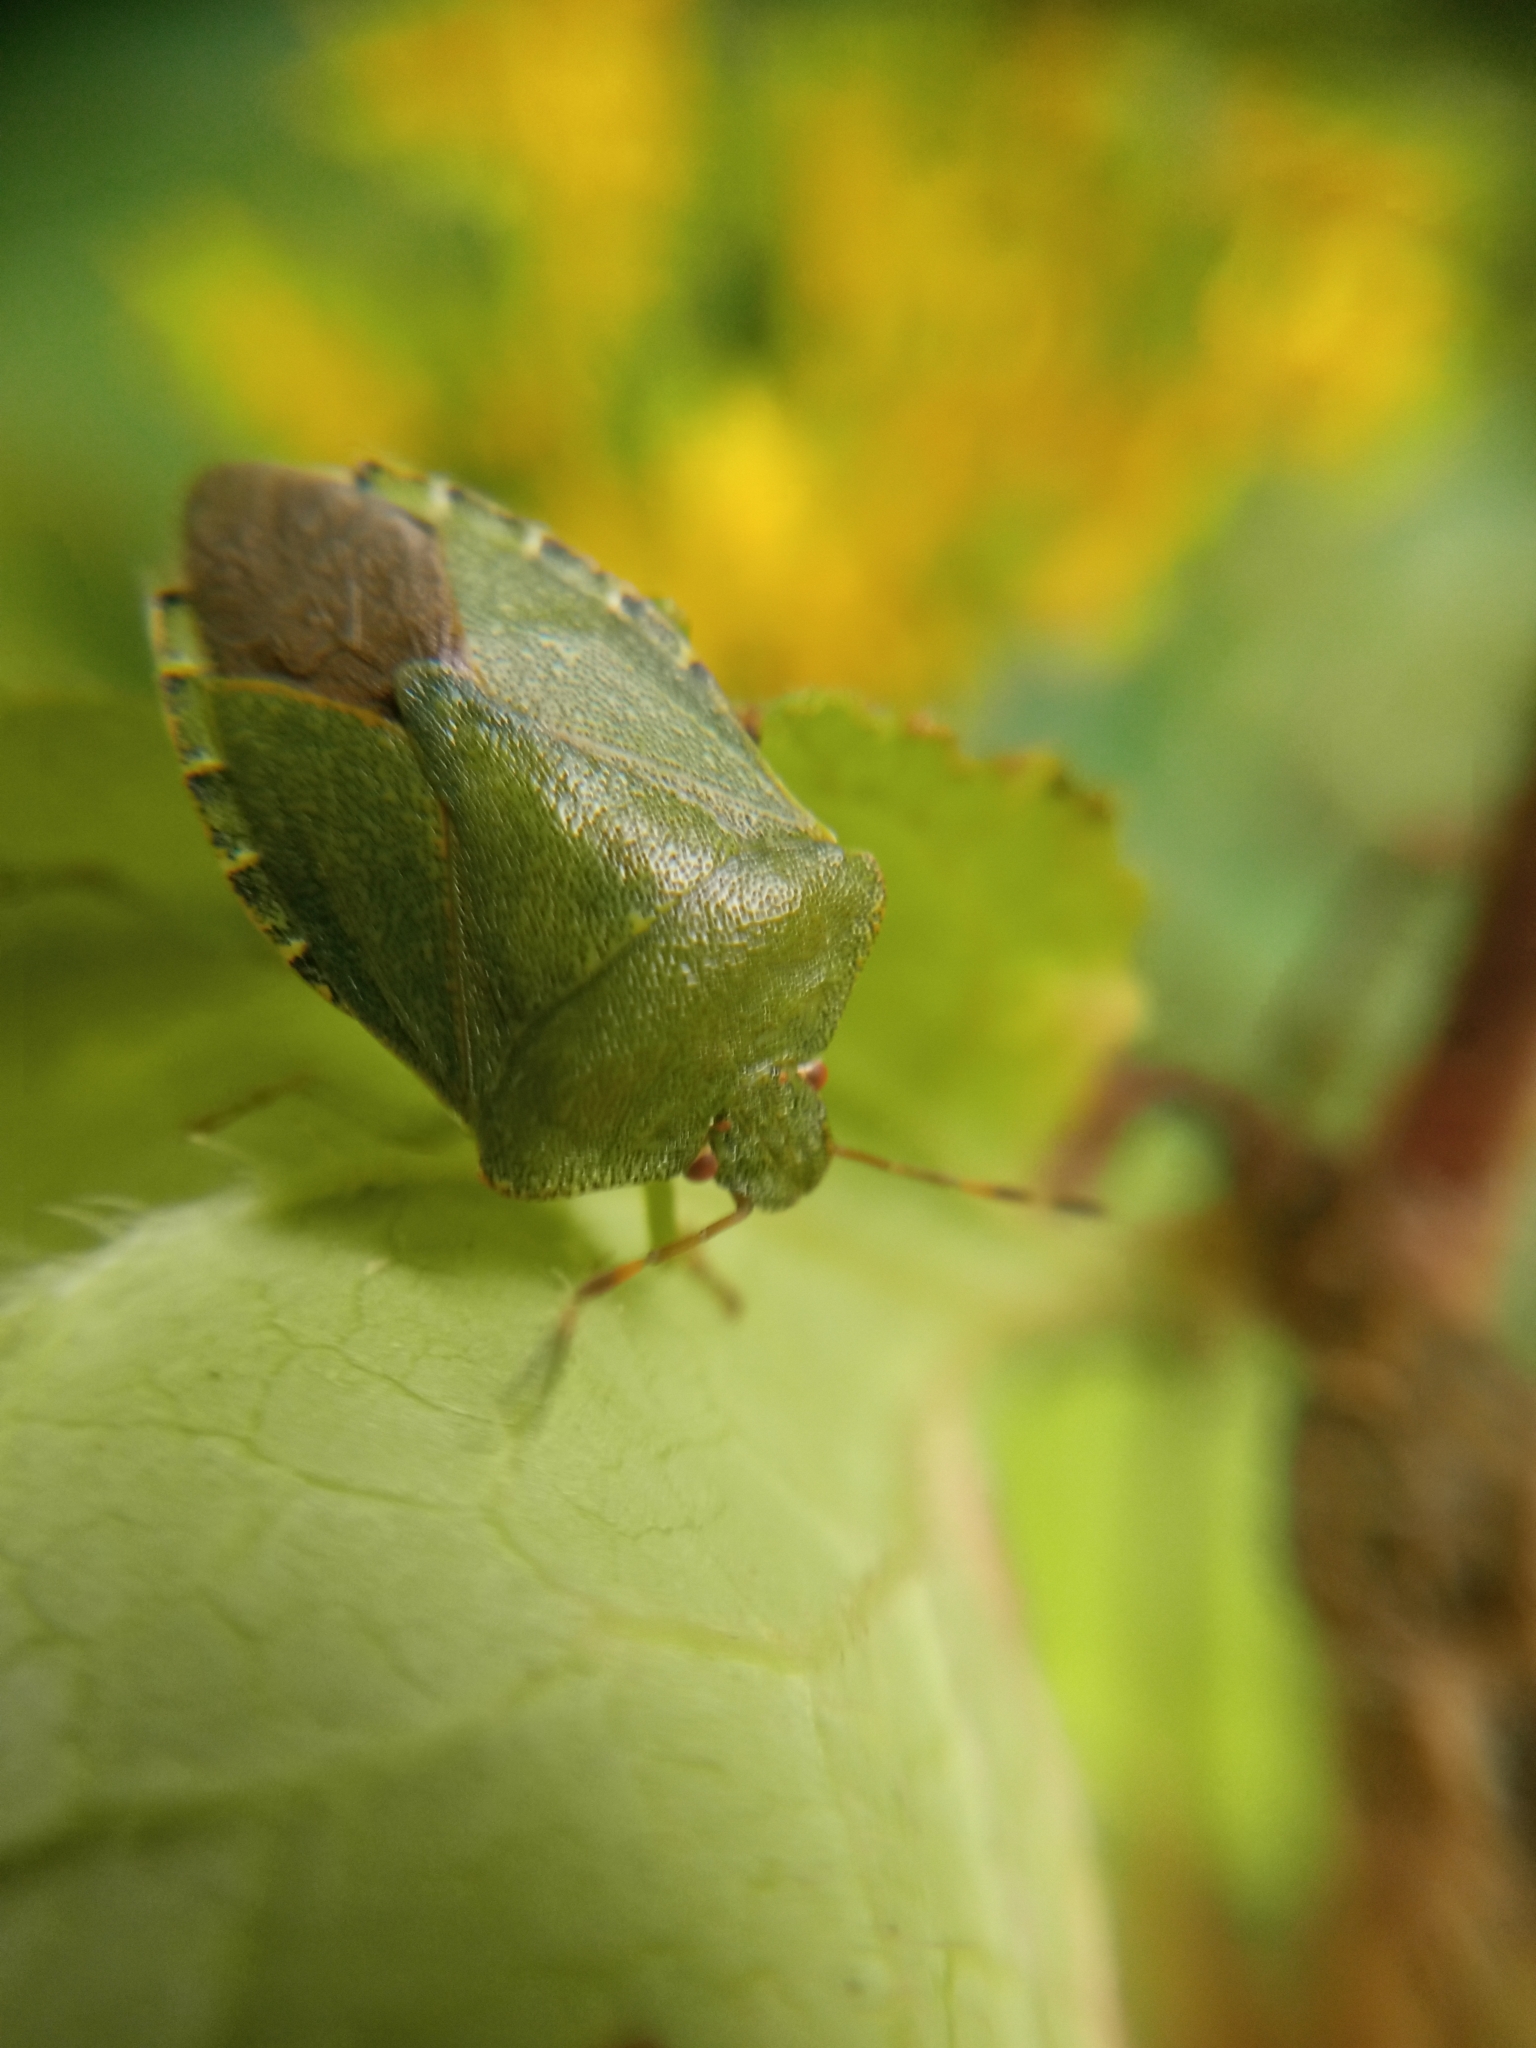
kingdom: Animalia
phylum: Arthropoda
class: Insecta
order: Hemiptera
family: Pentatomidae
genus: Palomena
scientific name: Palomena prasina
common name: Green shieldbug
